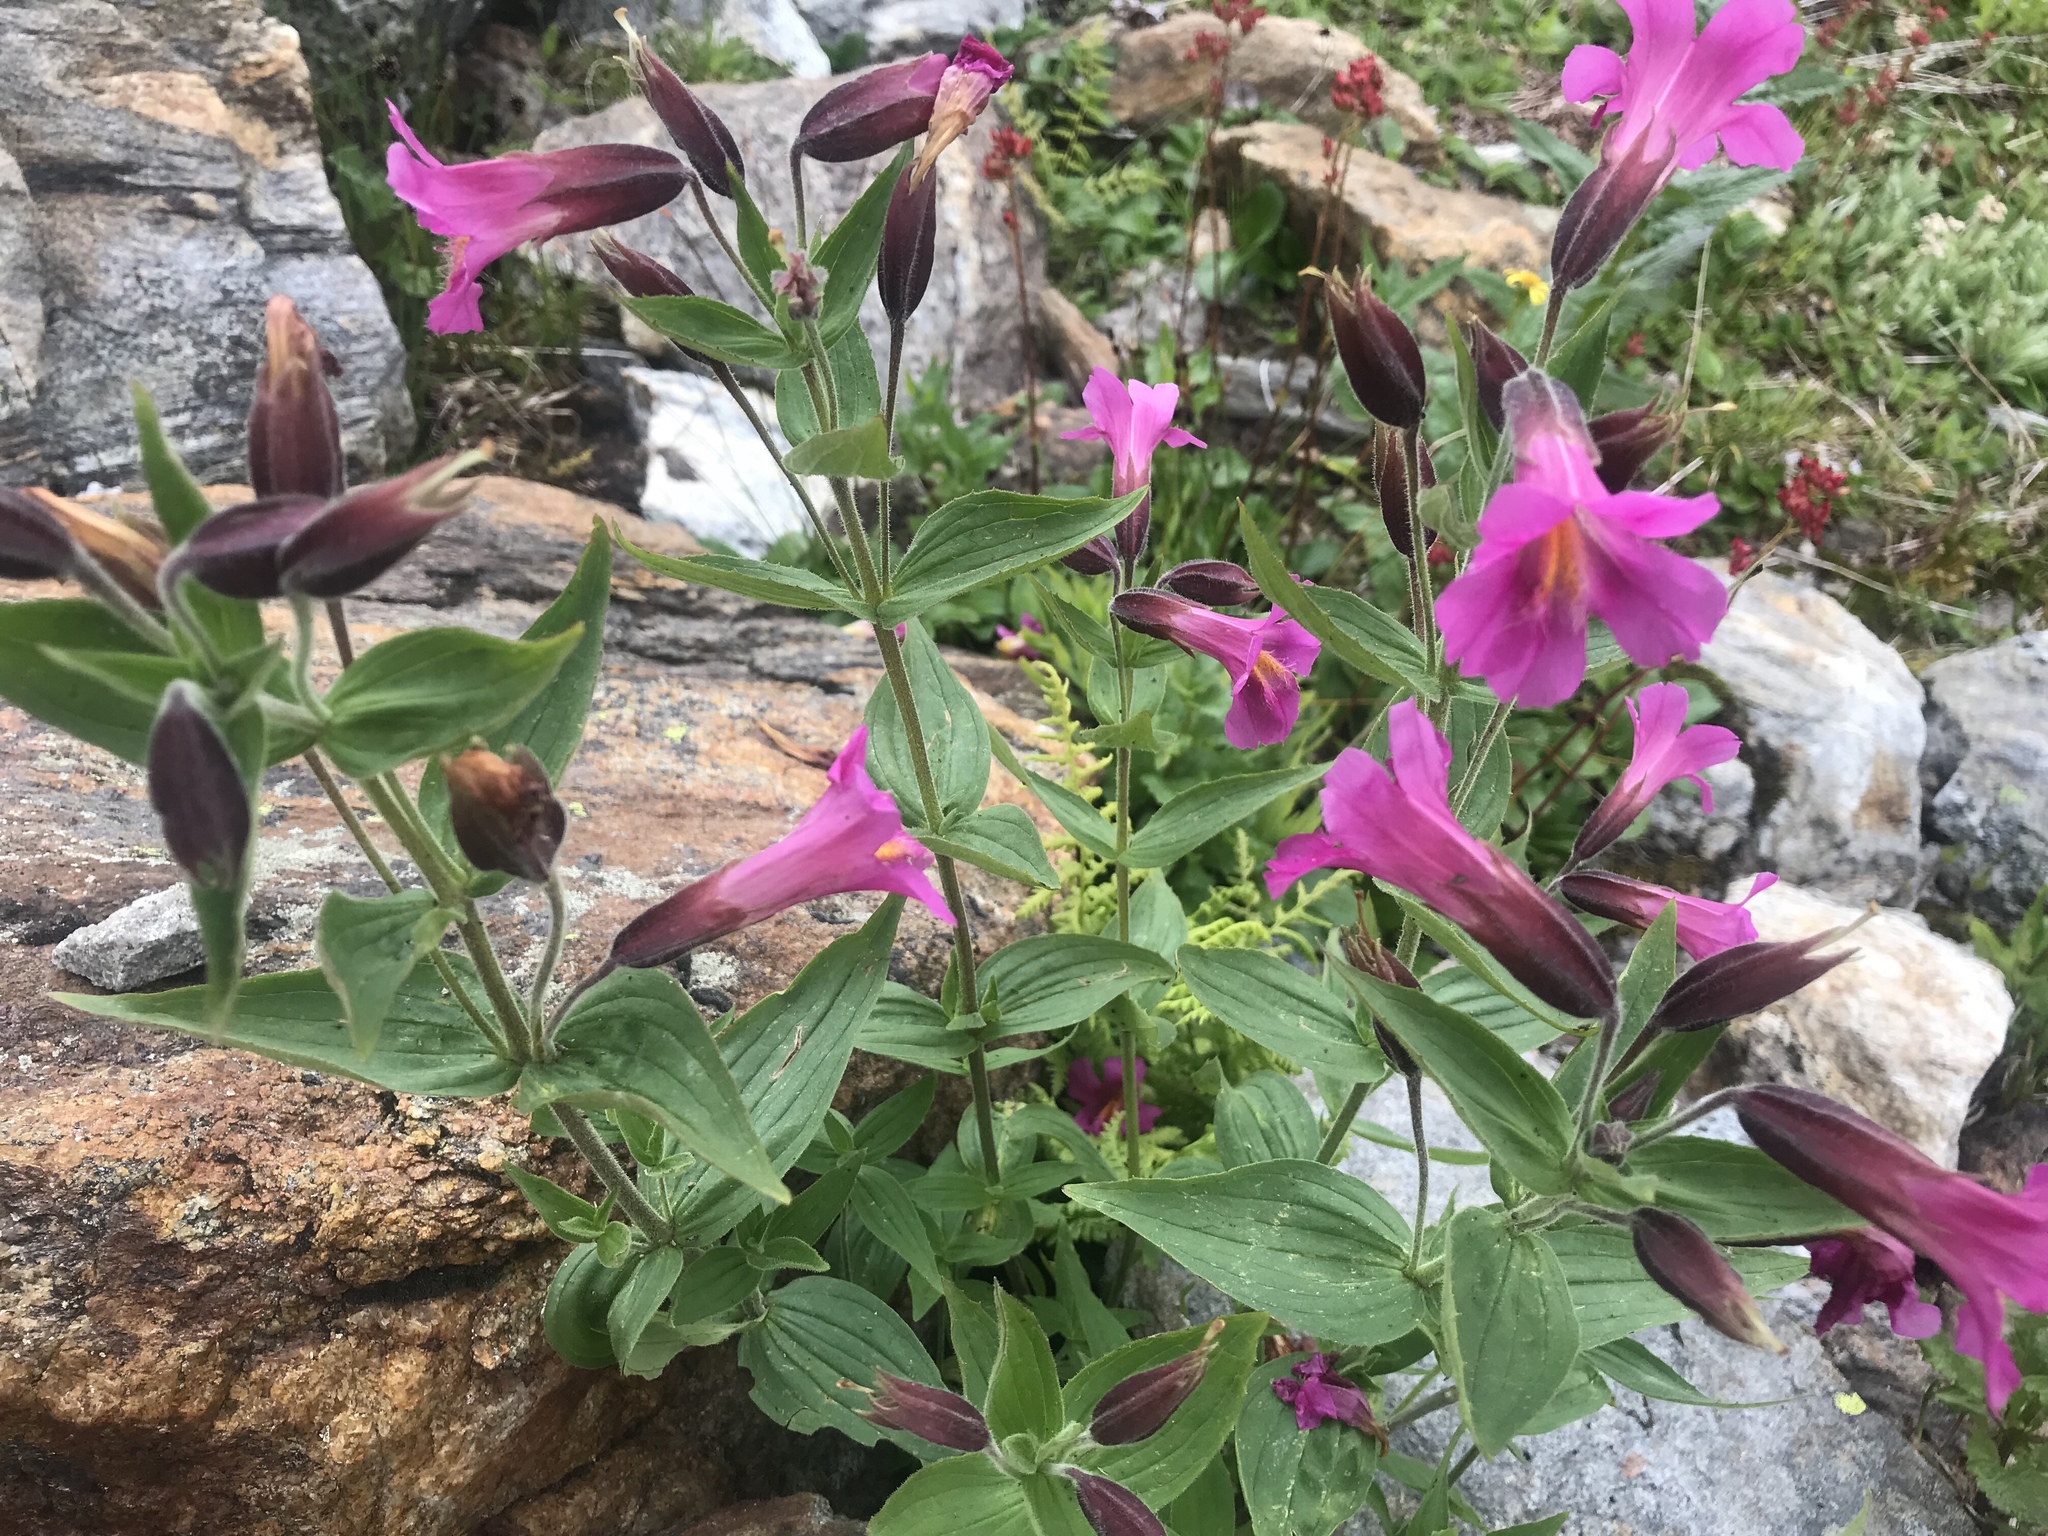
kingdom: Plantae
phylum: Tracheophyta
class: Magnoliopsida
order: Lamiales
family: Phrymaceae
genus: Erythranthe
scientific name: Erythranthe lewisii
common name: Lewis's monkey-flower
